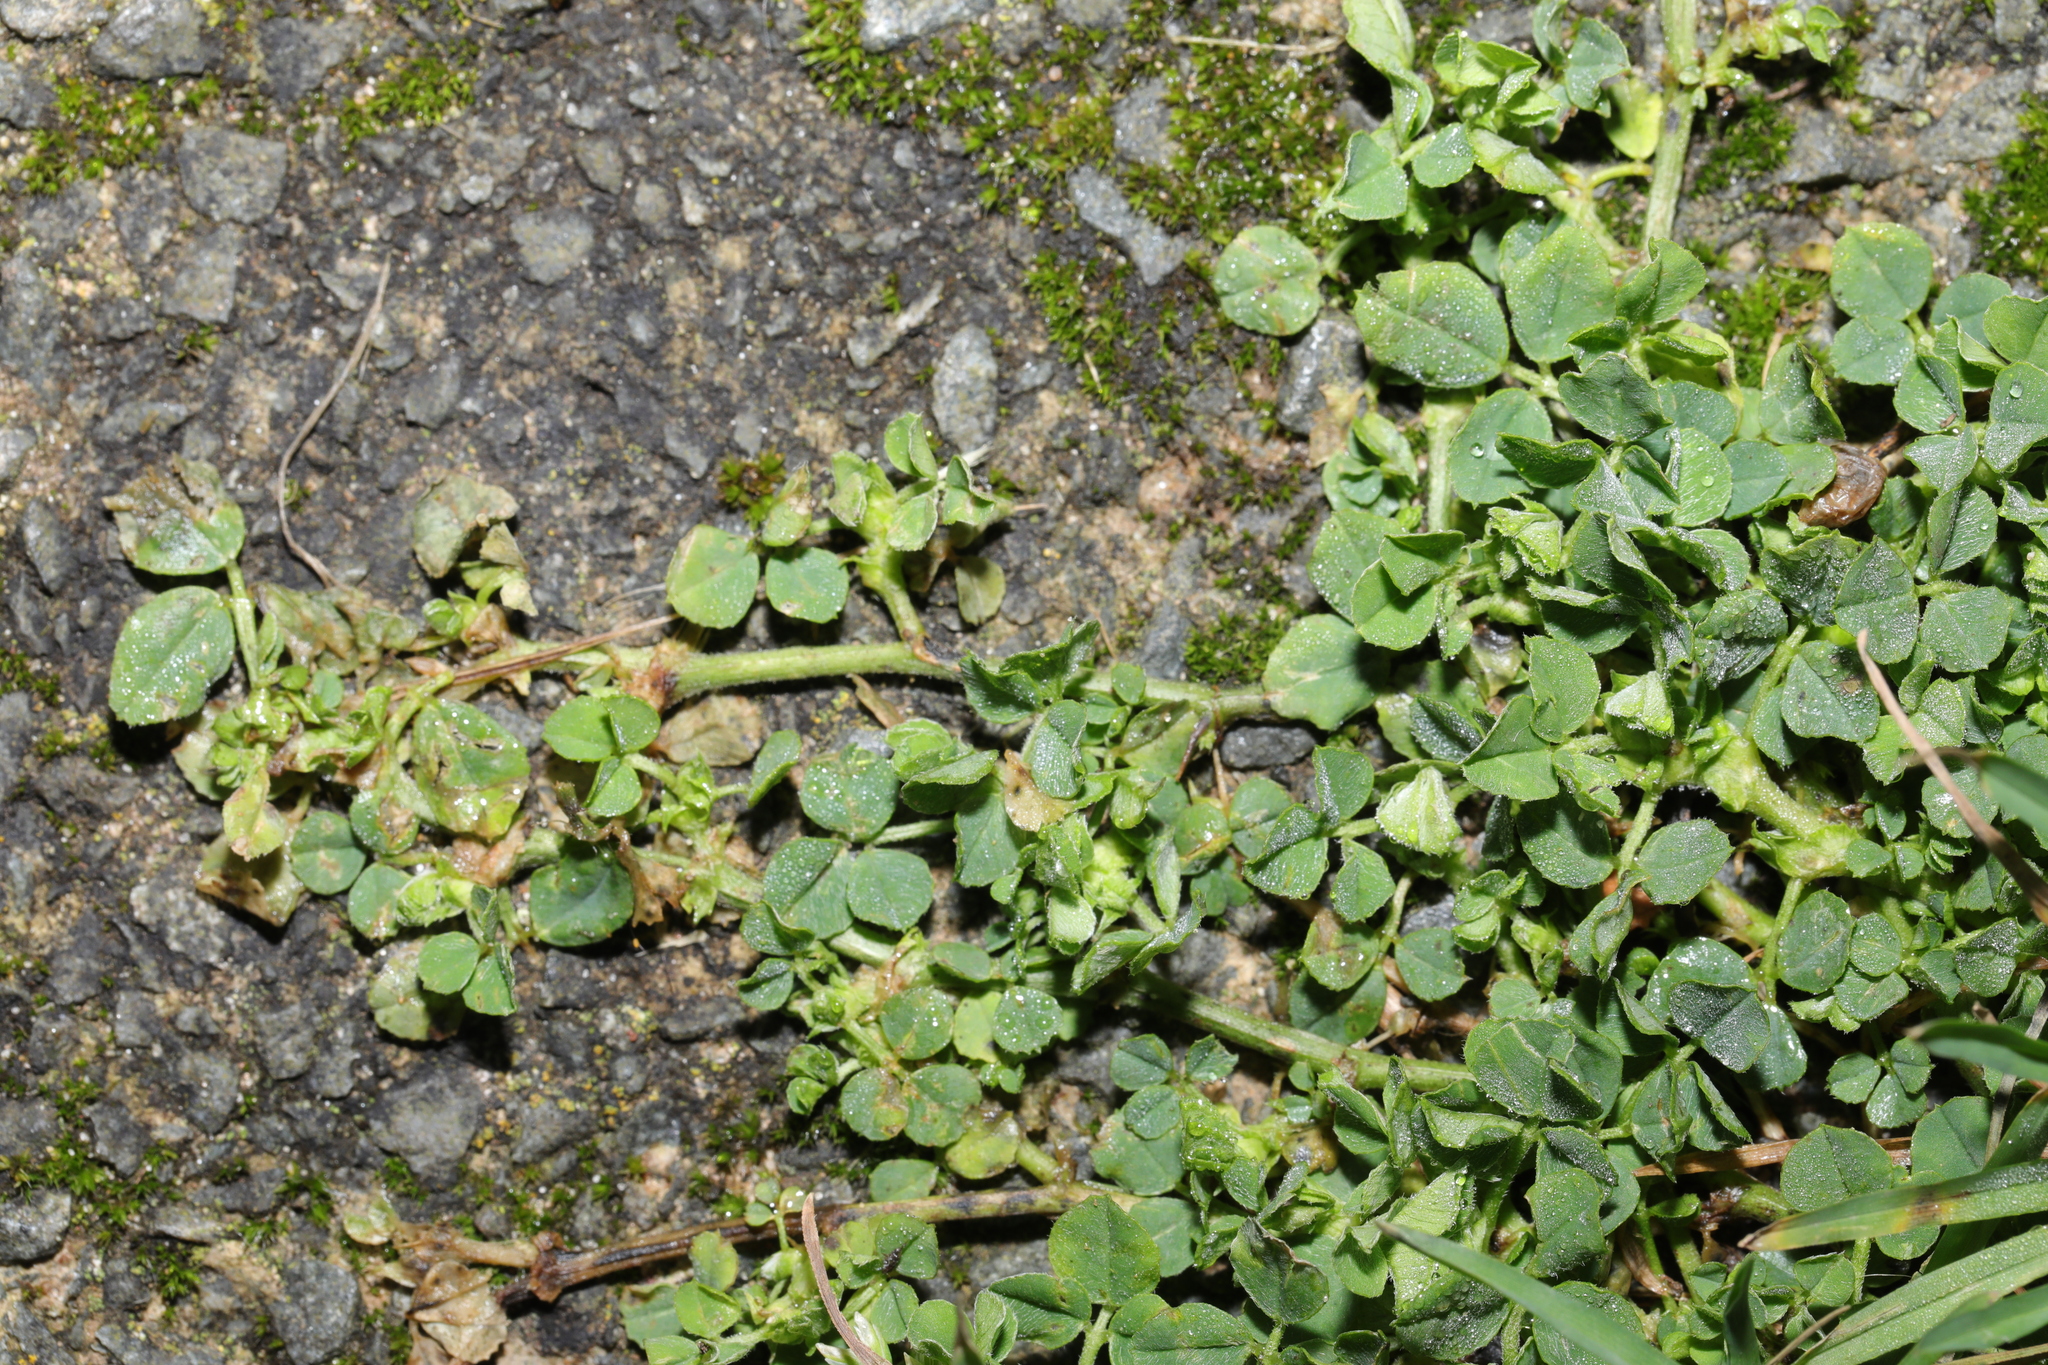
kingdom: Plantae
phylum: Tracheophyta
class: Magnoliopsida
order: Fabales
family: Fabaceae
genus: Medicago
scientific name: Medicago lupulina
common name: Black medick
